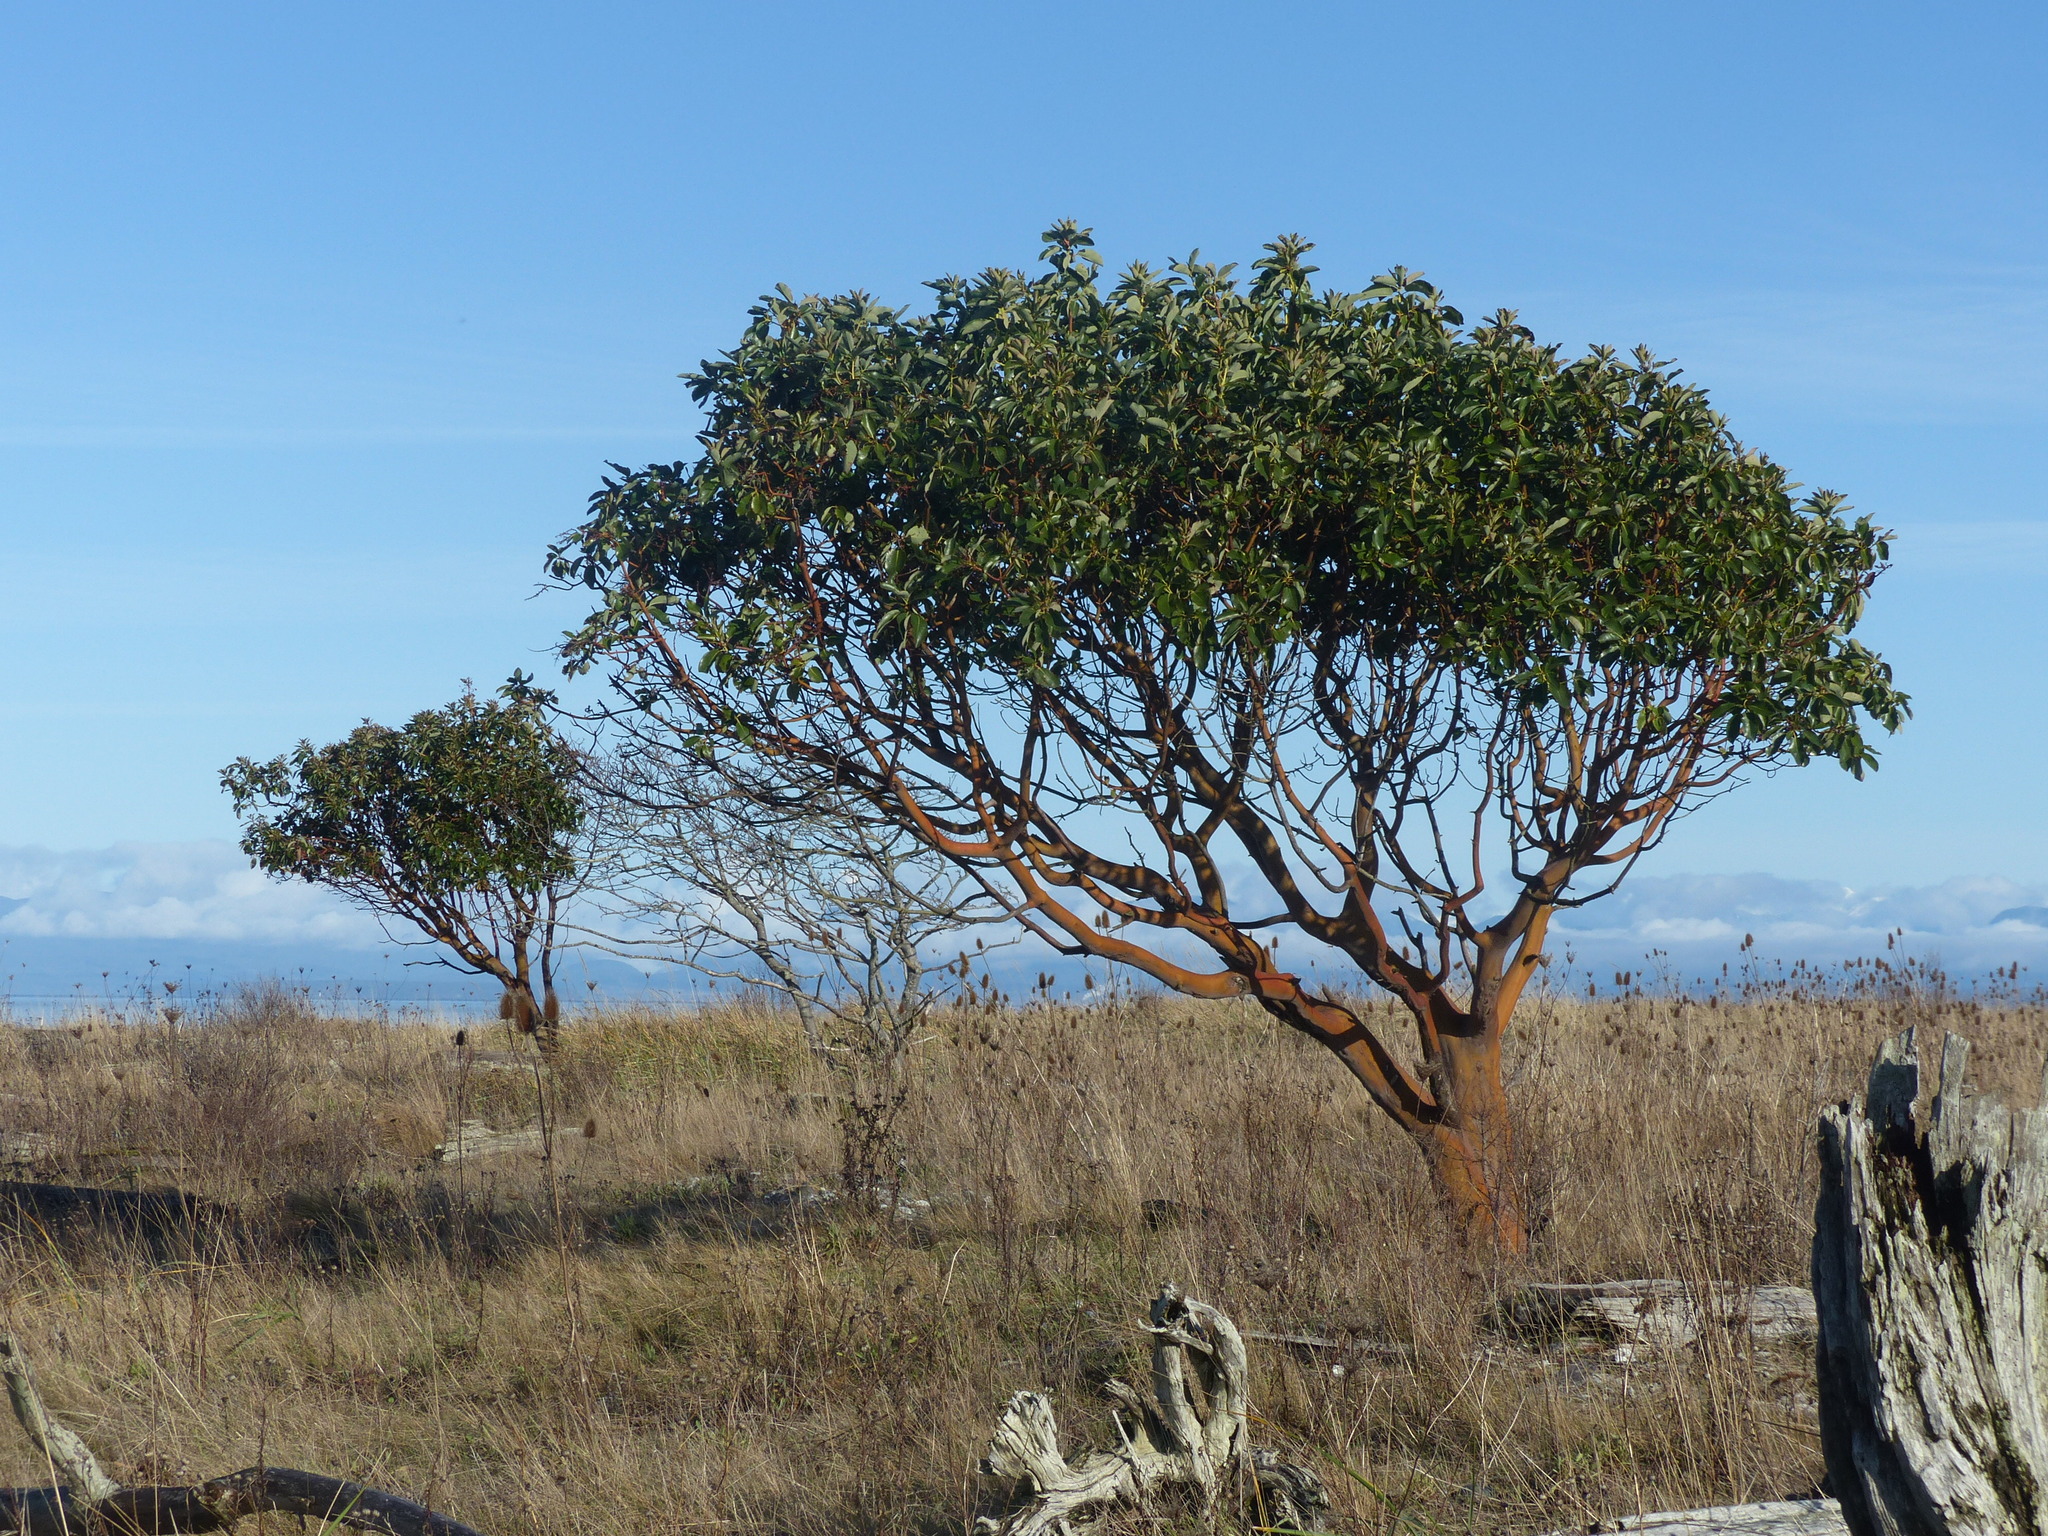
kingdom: Plantae
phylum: Tracheophyta
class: Magnoliopsida
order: Ericales
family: Ericaceae
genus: Arbutus
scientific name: Arbutus menziesii
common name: Pacific madrone
